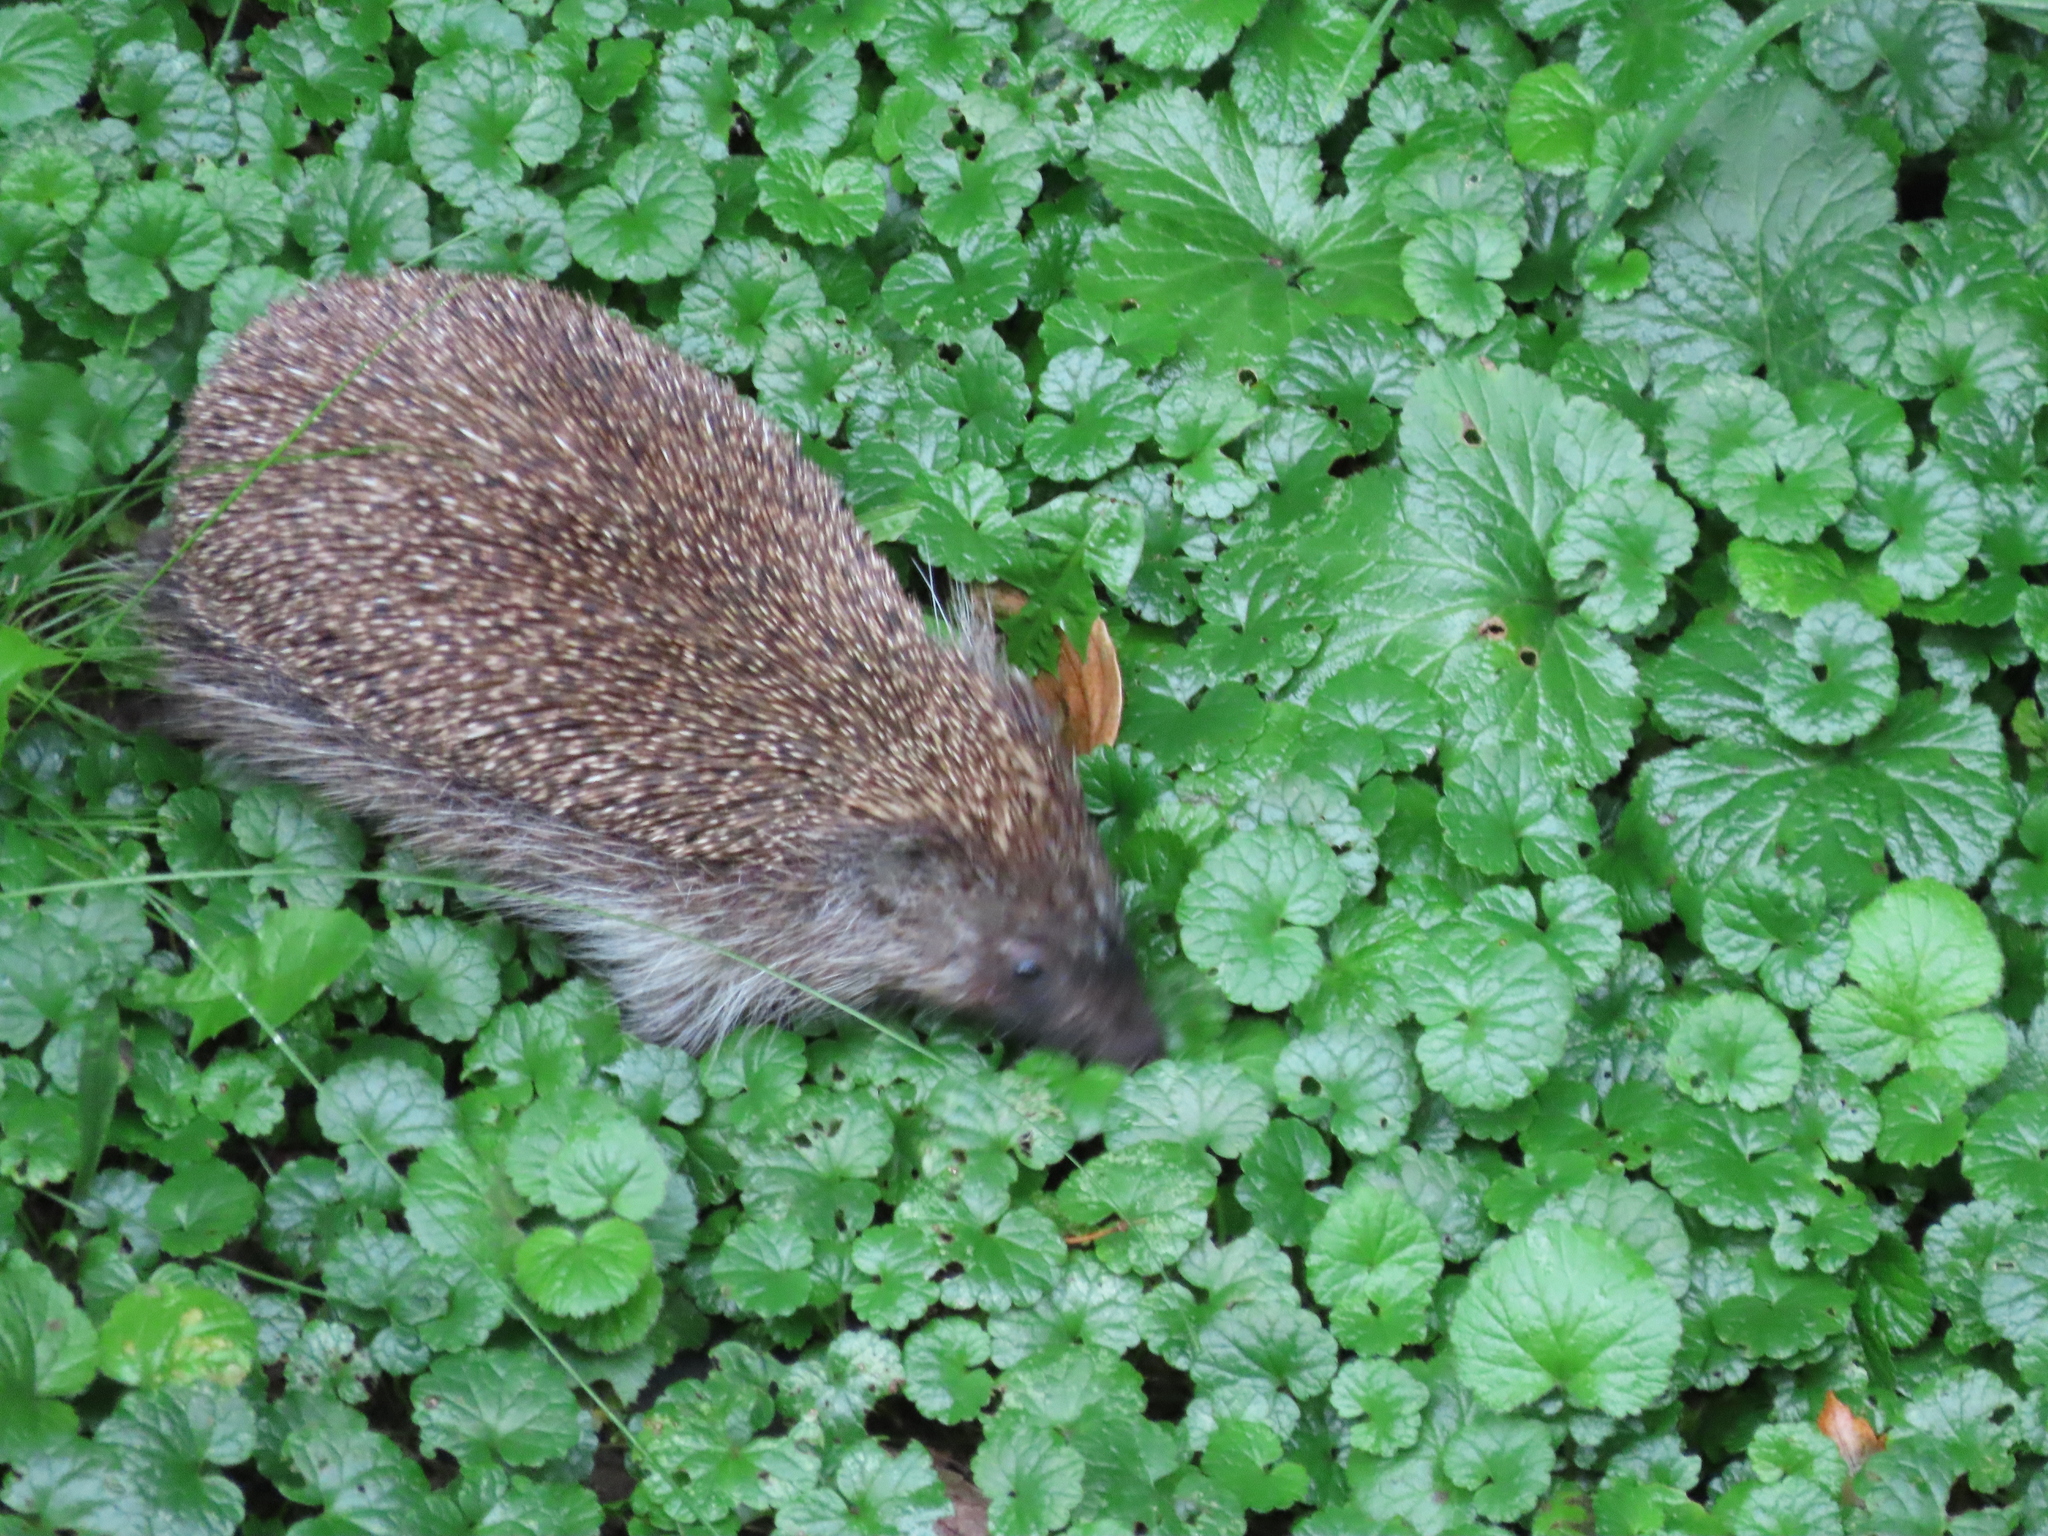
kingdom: Animalia
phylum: Chordata
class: Mammalia
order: Erinaceomorpha
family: Erinaceidae
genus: Erinaceus
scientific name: Erinaceus europaeus
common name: West european hedgehog
